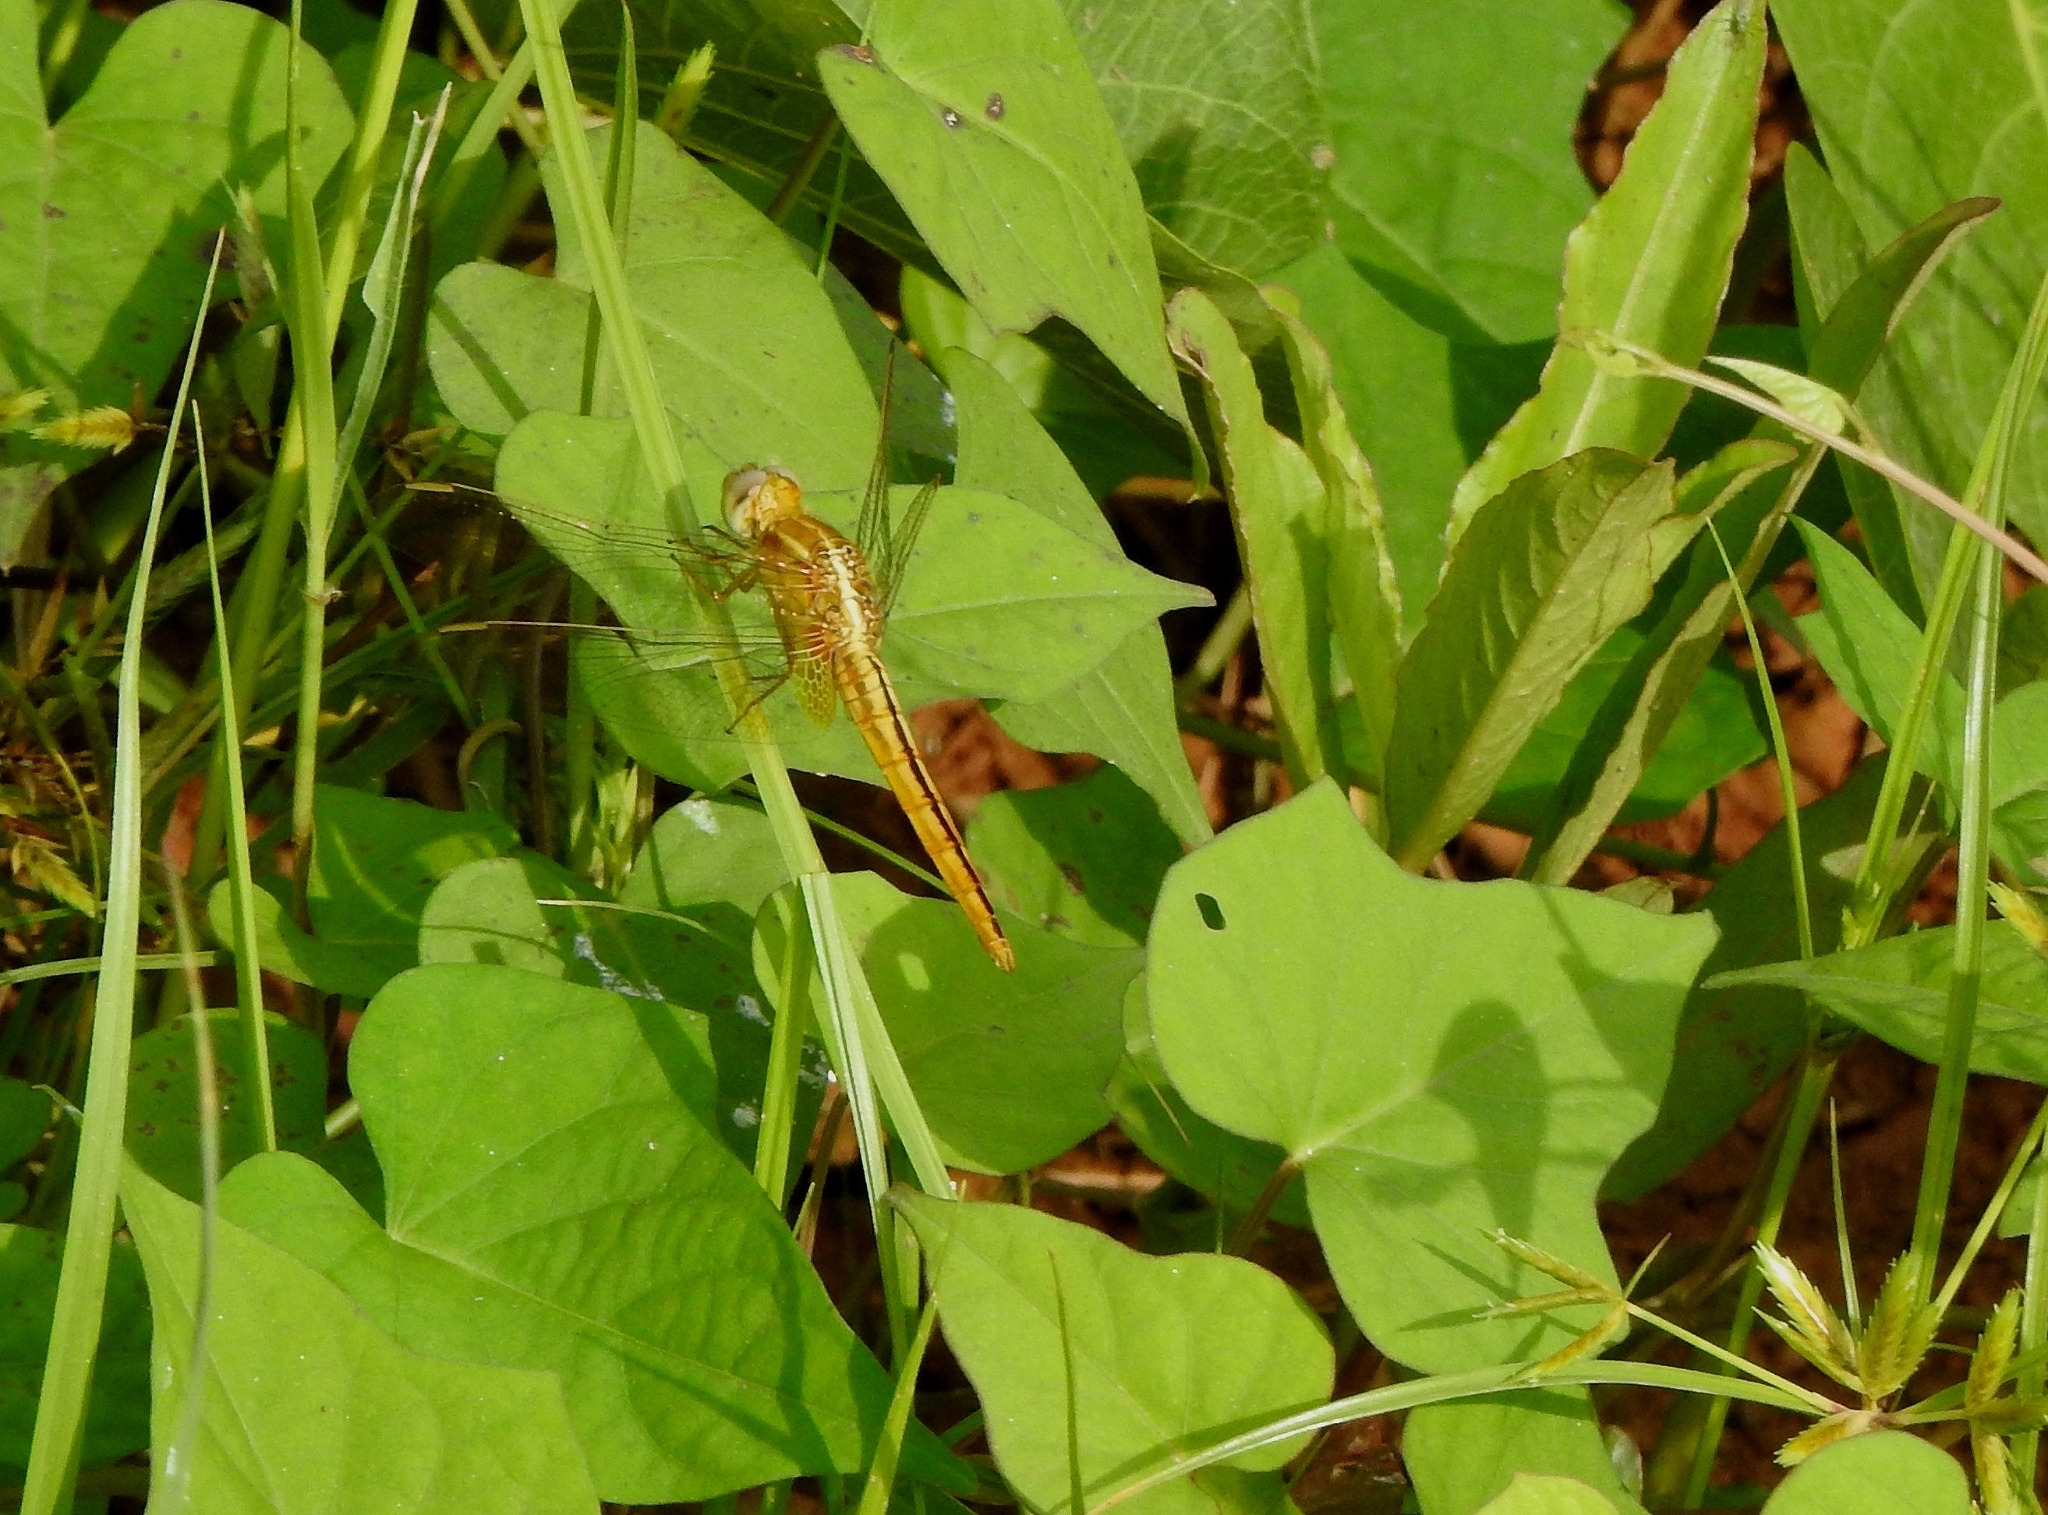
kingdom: Animalia
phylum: Arthropoda
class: Insecta
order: Odonata
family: Libellulidae
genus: Crocothemis
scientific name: Crocothemis servilia
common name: Scarlet skimmer
